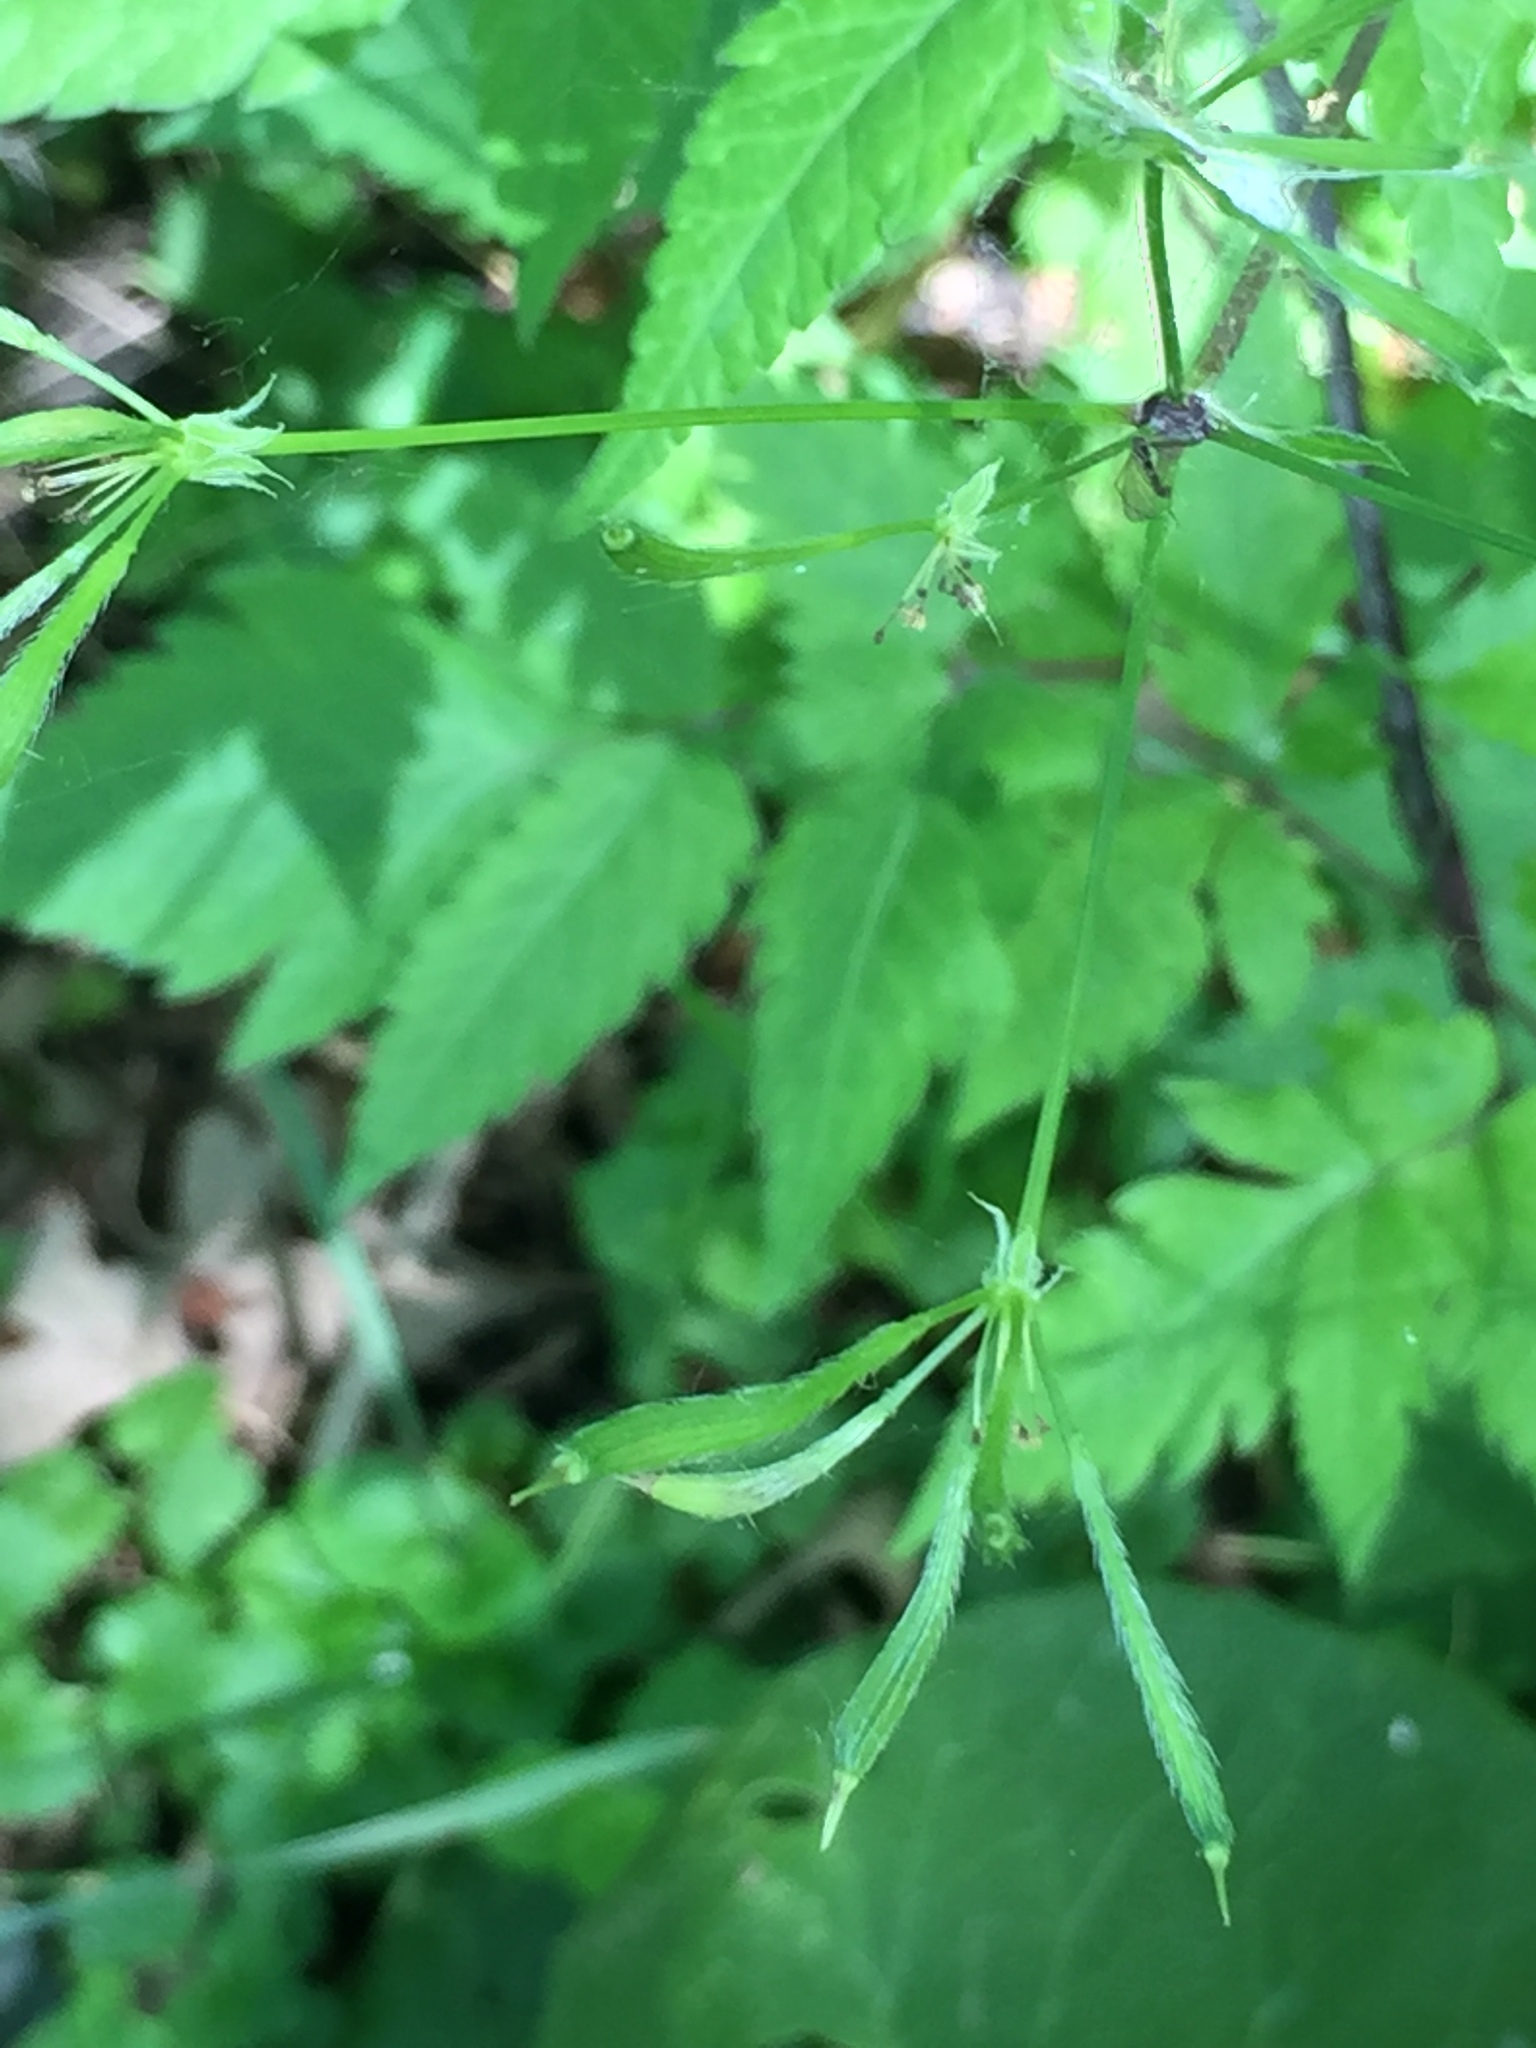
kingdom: Plantae
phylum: Tracheophyta
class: Magnoliopsida
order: Apiales
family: Apiaceae
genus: Osmorhiza
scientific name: Osmorhiza longistylis
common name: Smooth sweet cicely
